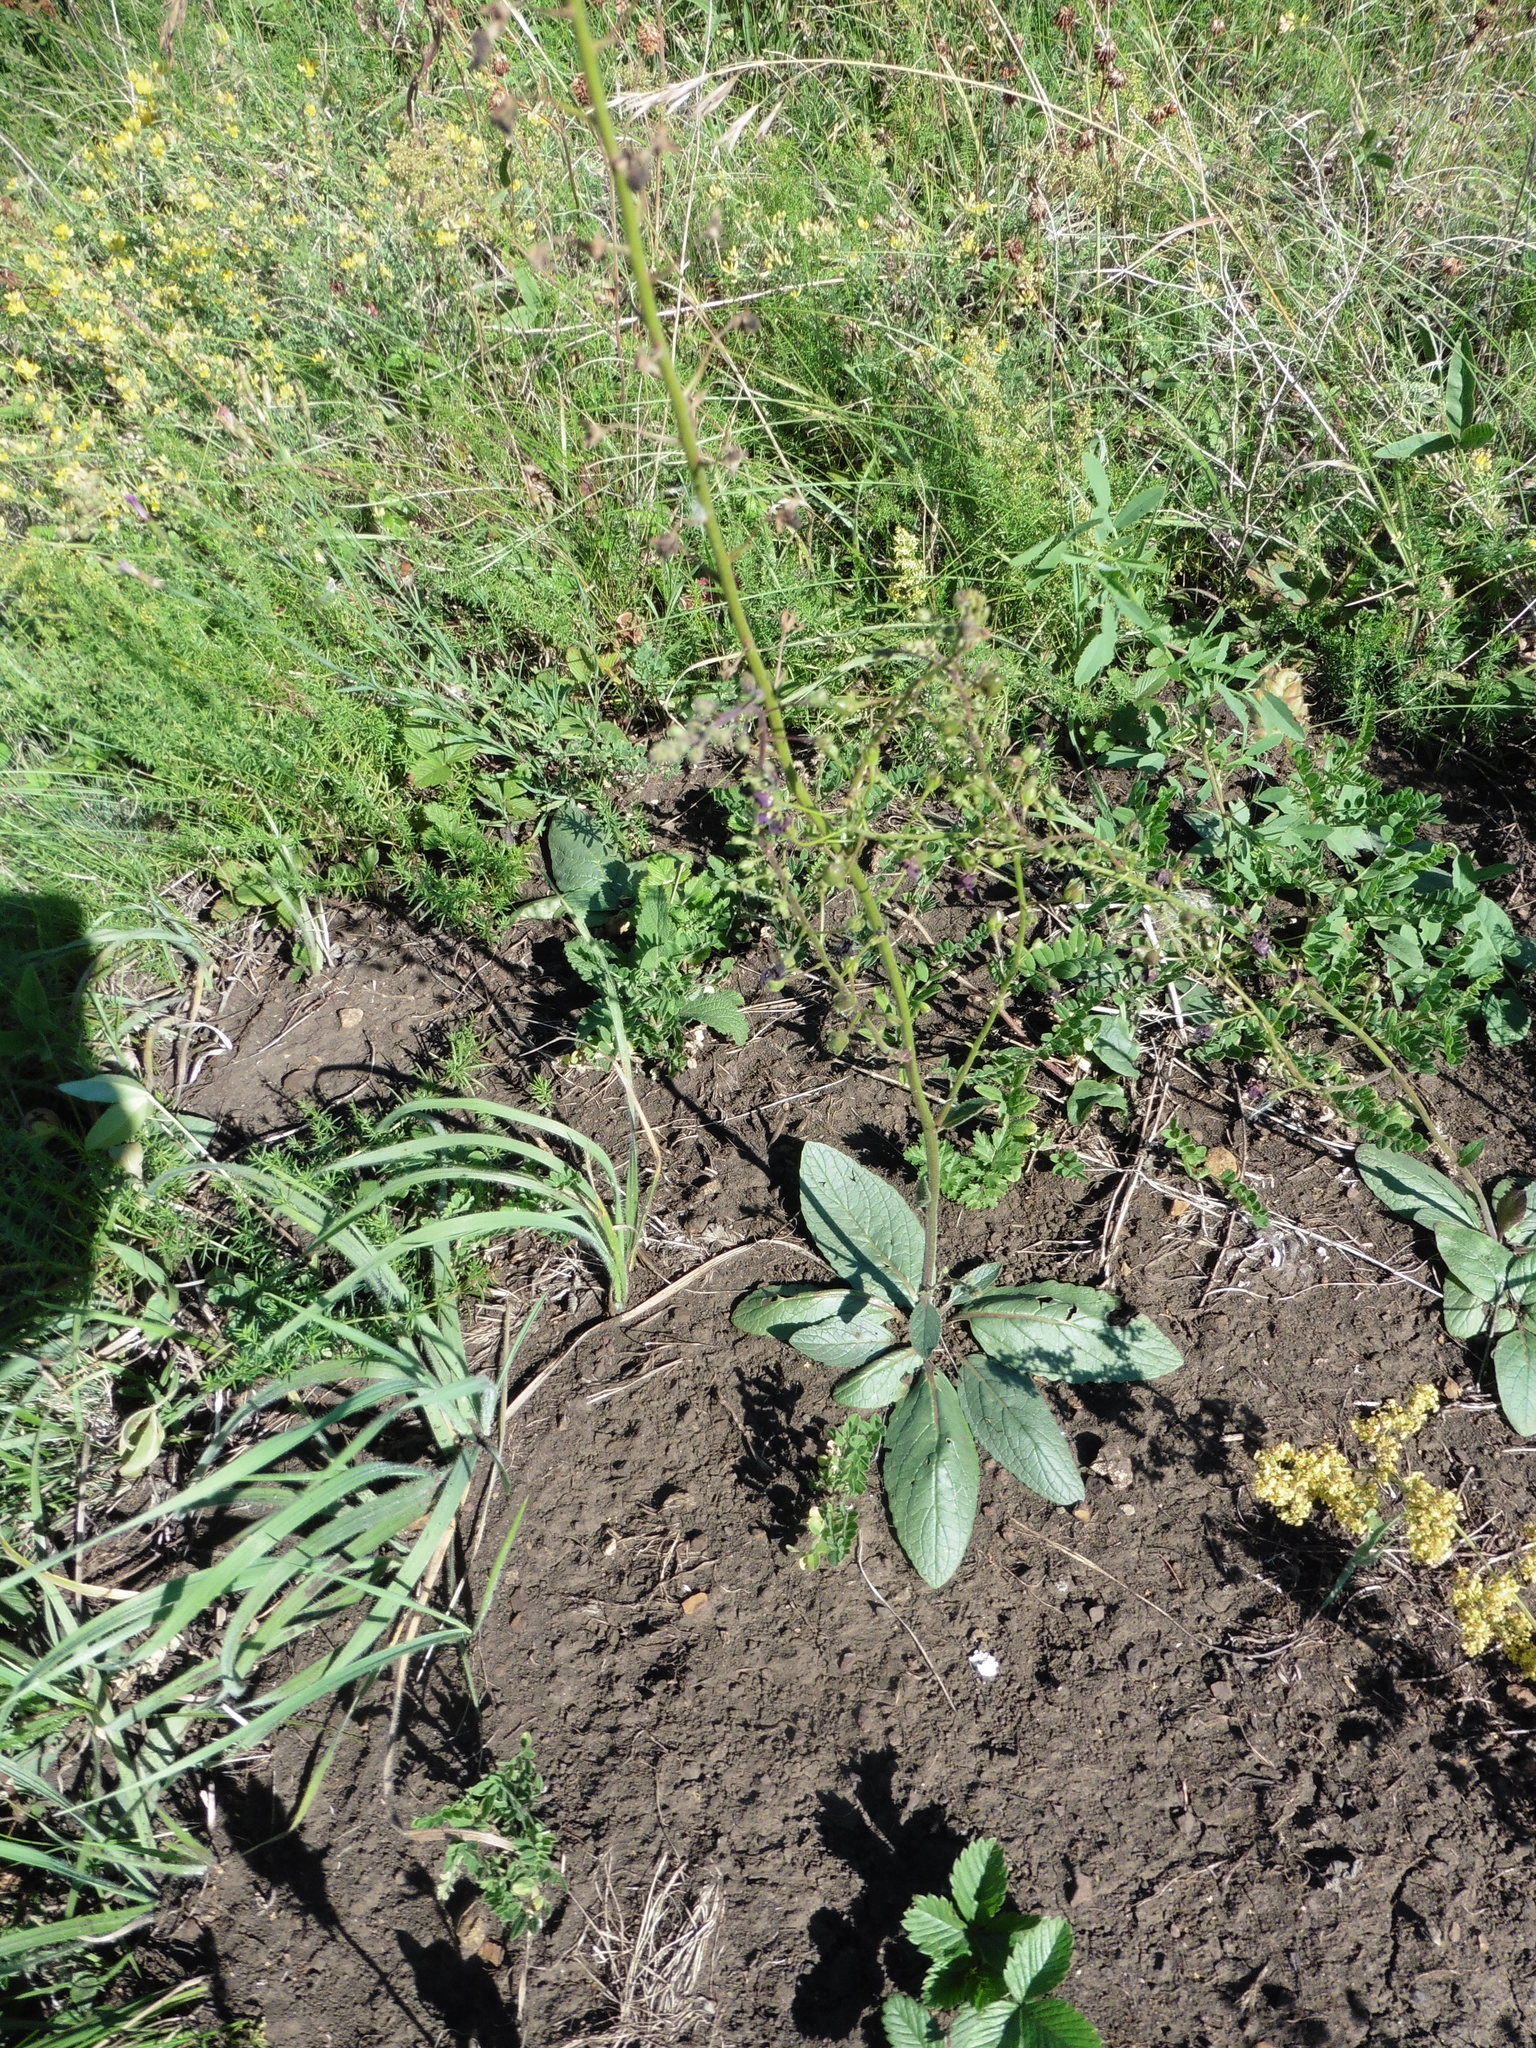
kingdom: Plantae
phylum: Tracheophyta
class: Magnoliopsida
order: Lamiales
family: Scrophulariaceae
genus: Verbascum
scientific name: Verbascum phoeniceum
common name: Purple mullein
